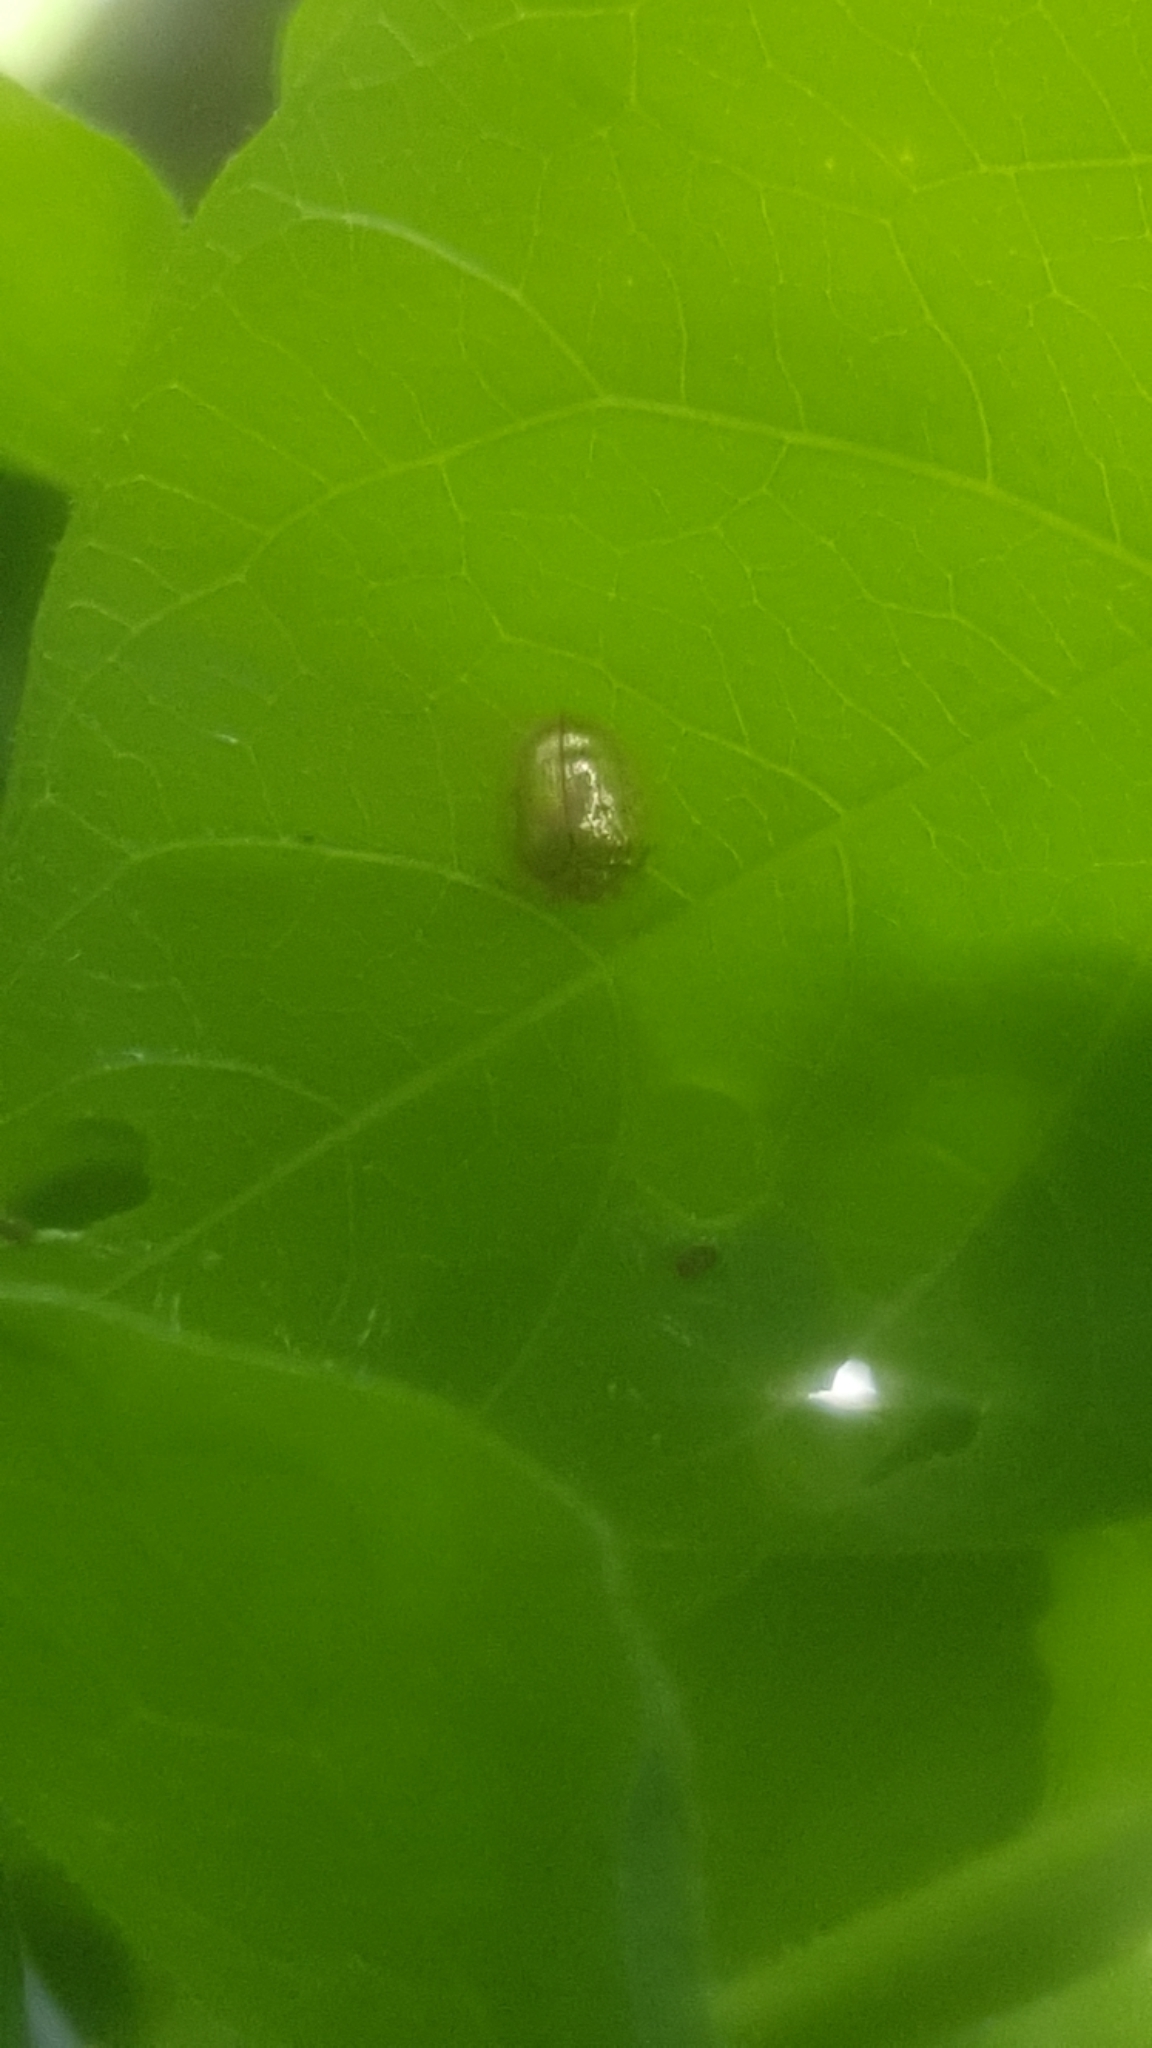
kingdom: Animalia
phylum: Arthropoda
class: Insecta
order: Coleoptera
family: Chrysomelidae
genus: Charidotella
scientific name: Charidotella sexpunctata
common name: Golden tortoise beetle
